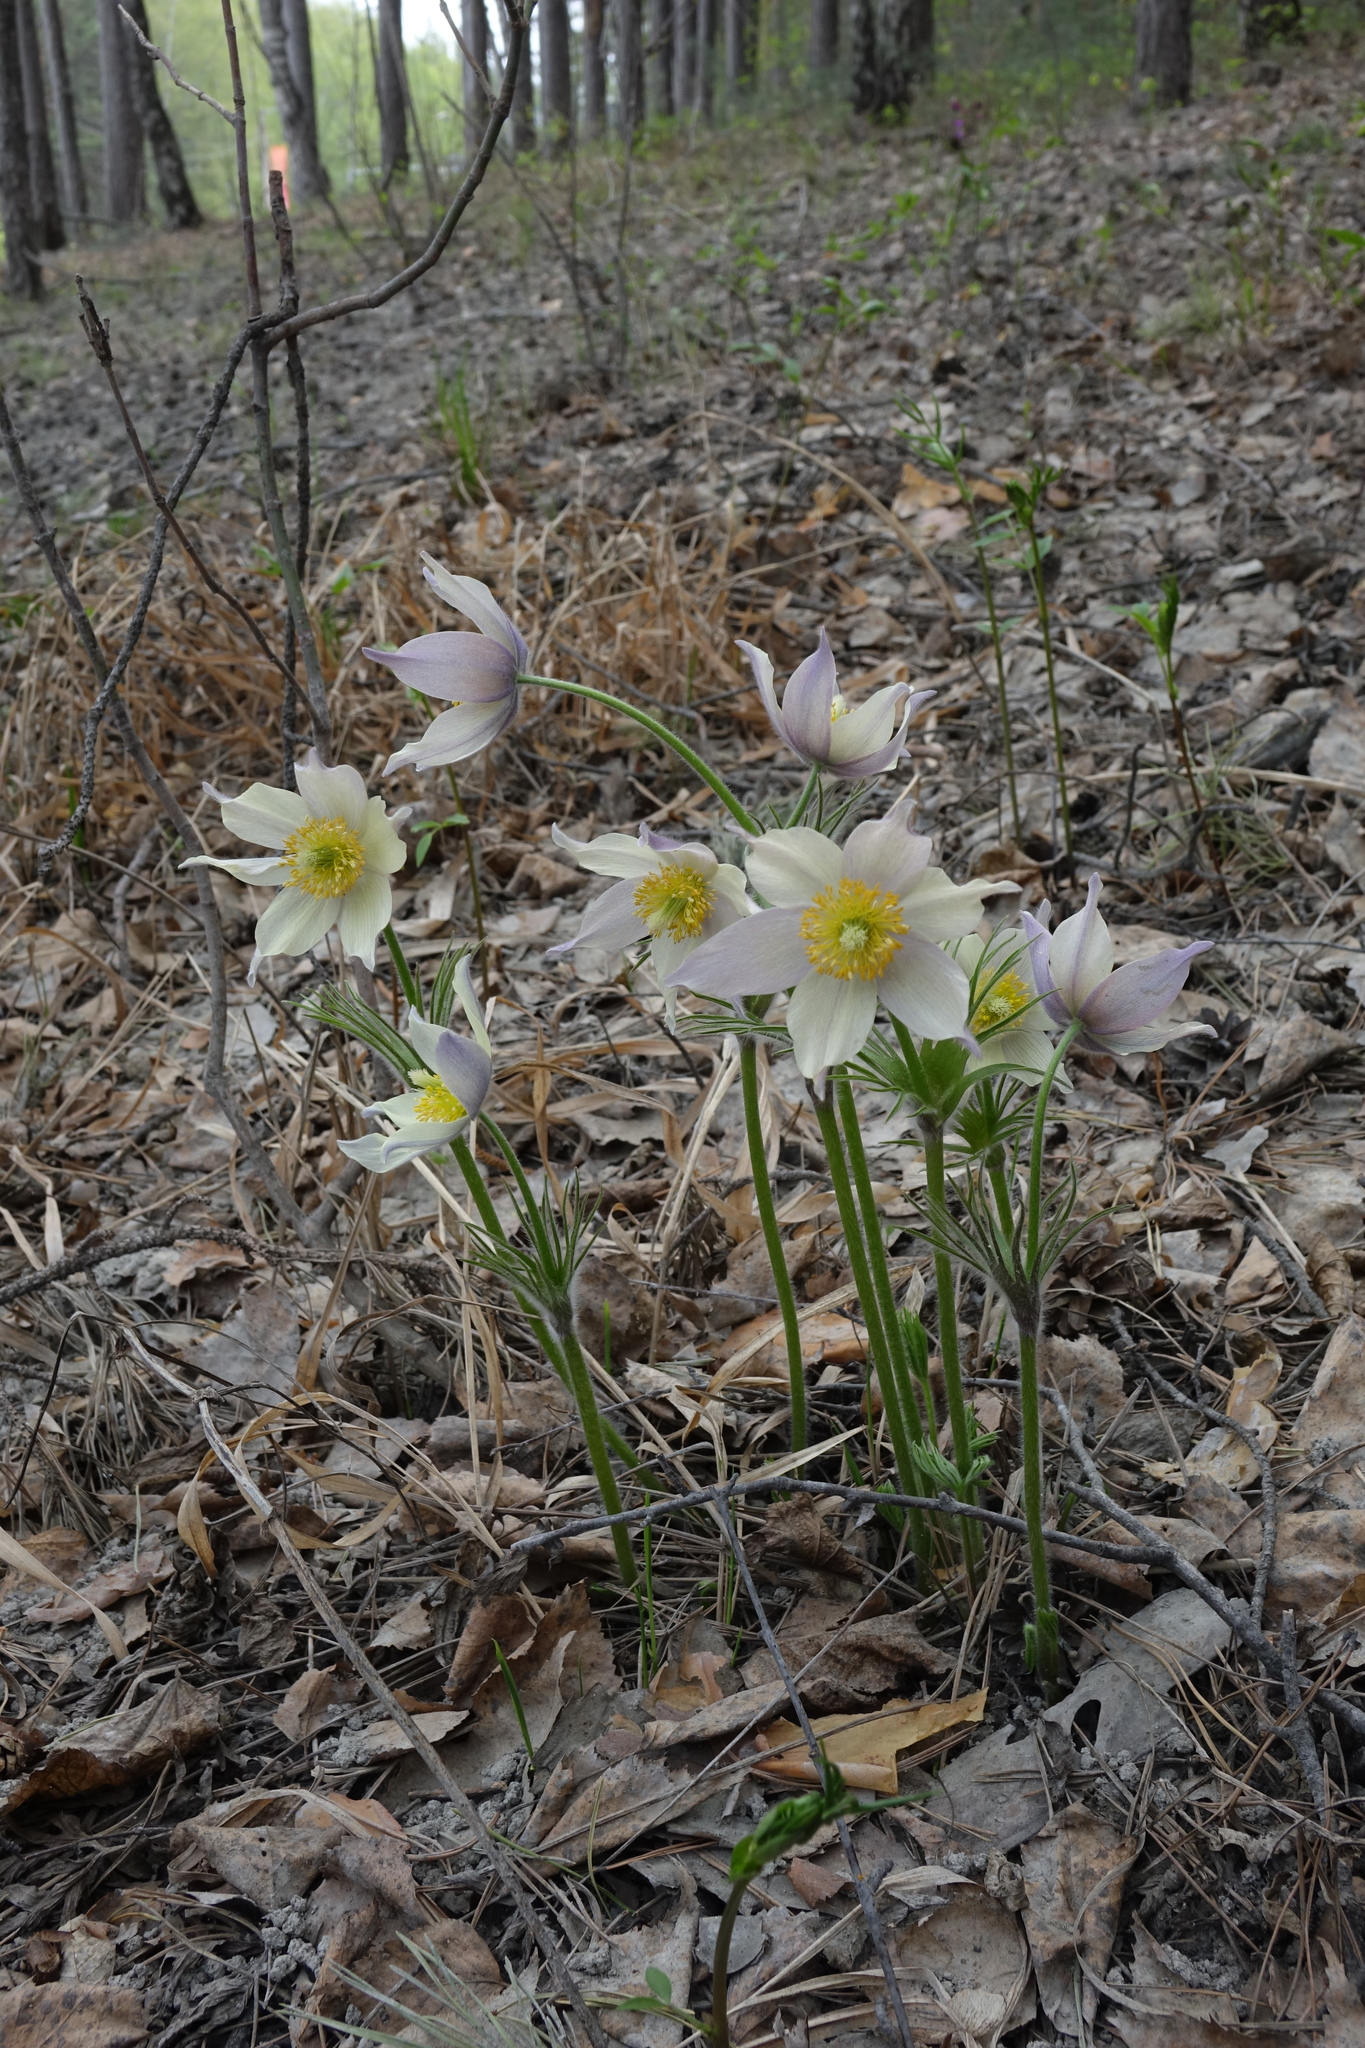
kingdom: Plantae
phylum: Tracheophyta
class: Magnoliopsida
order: Ranunculales
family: Ranunculaceae
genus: Pulsatilla
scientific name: Pulsatilla patens
